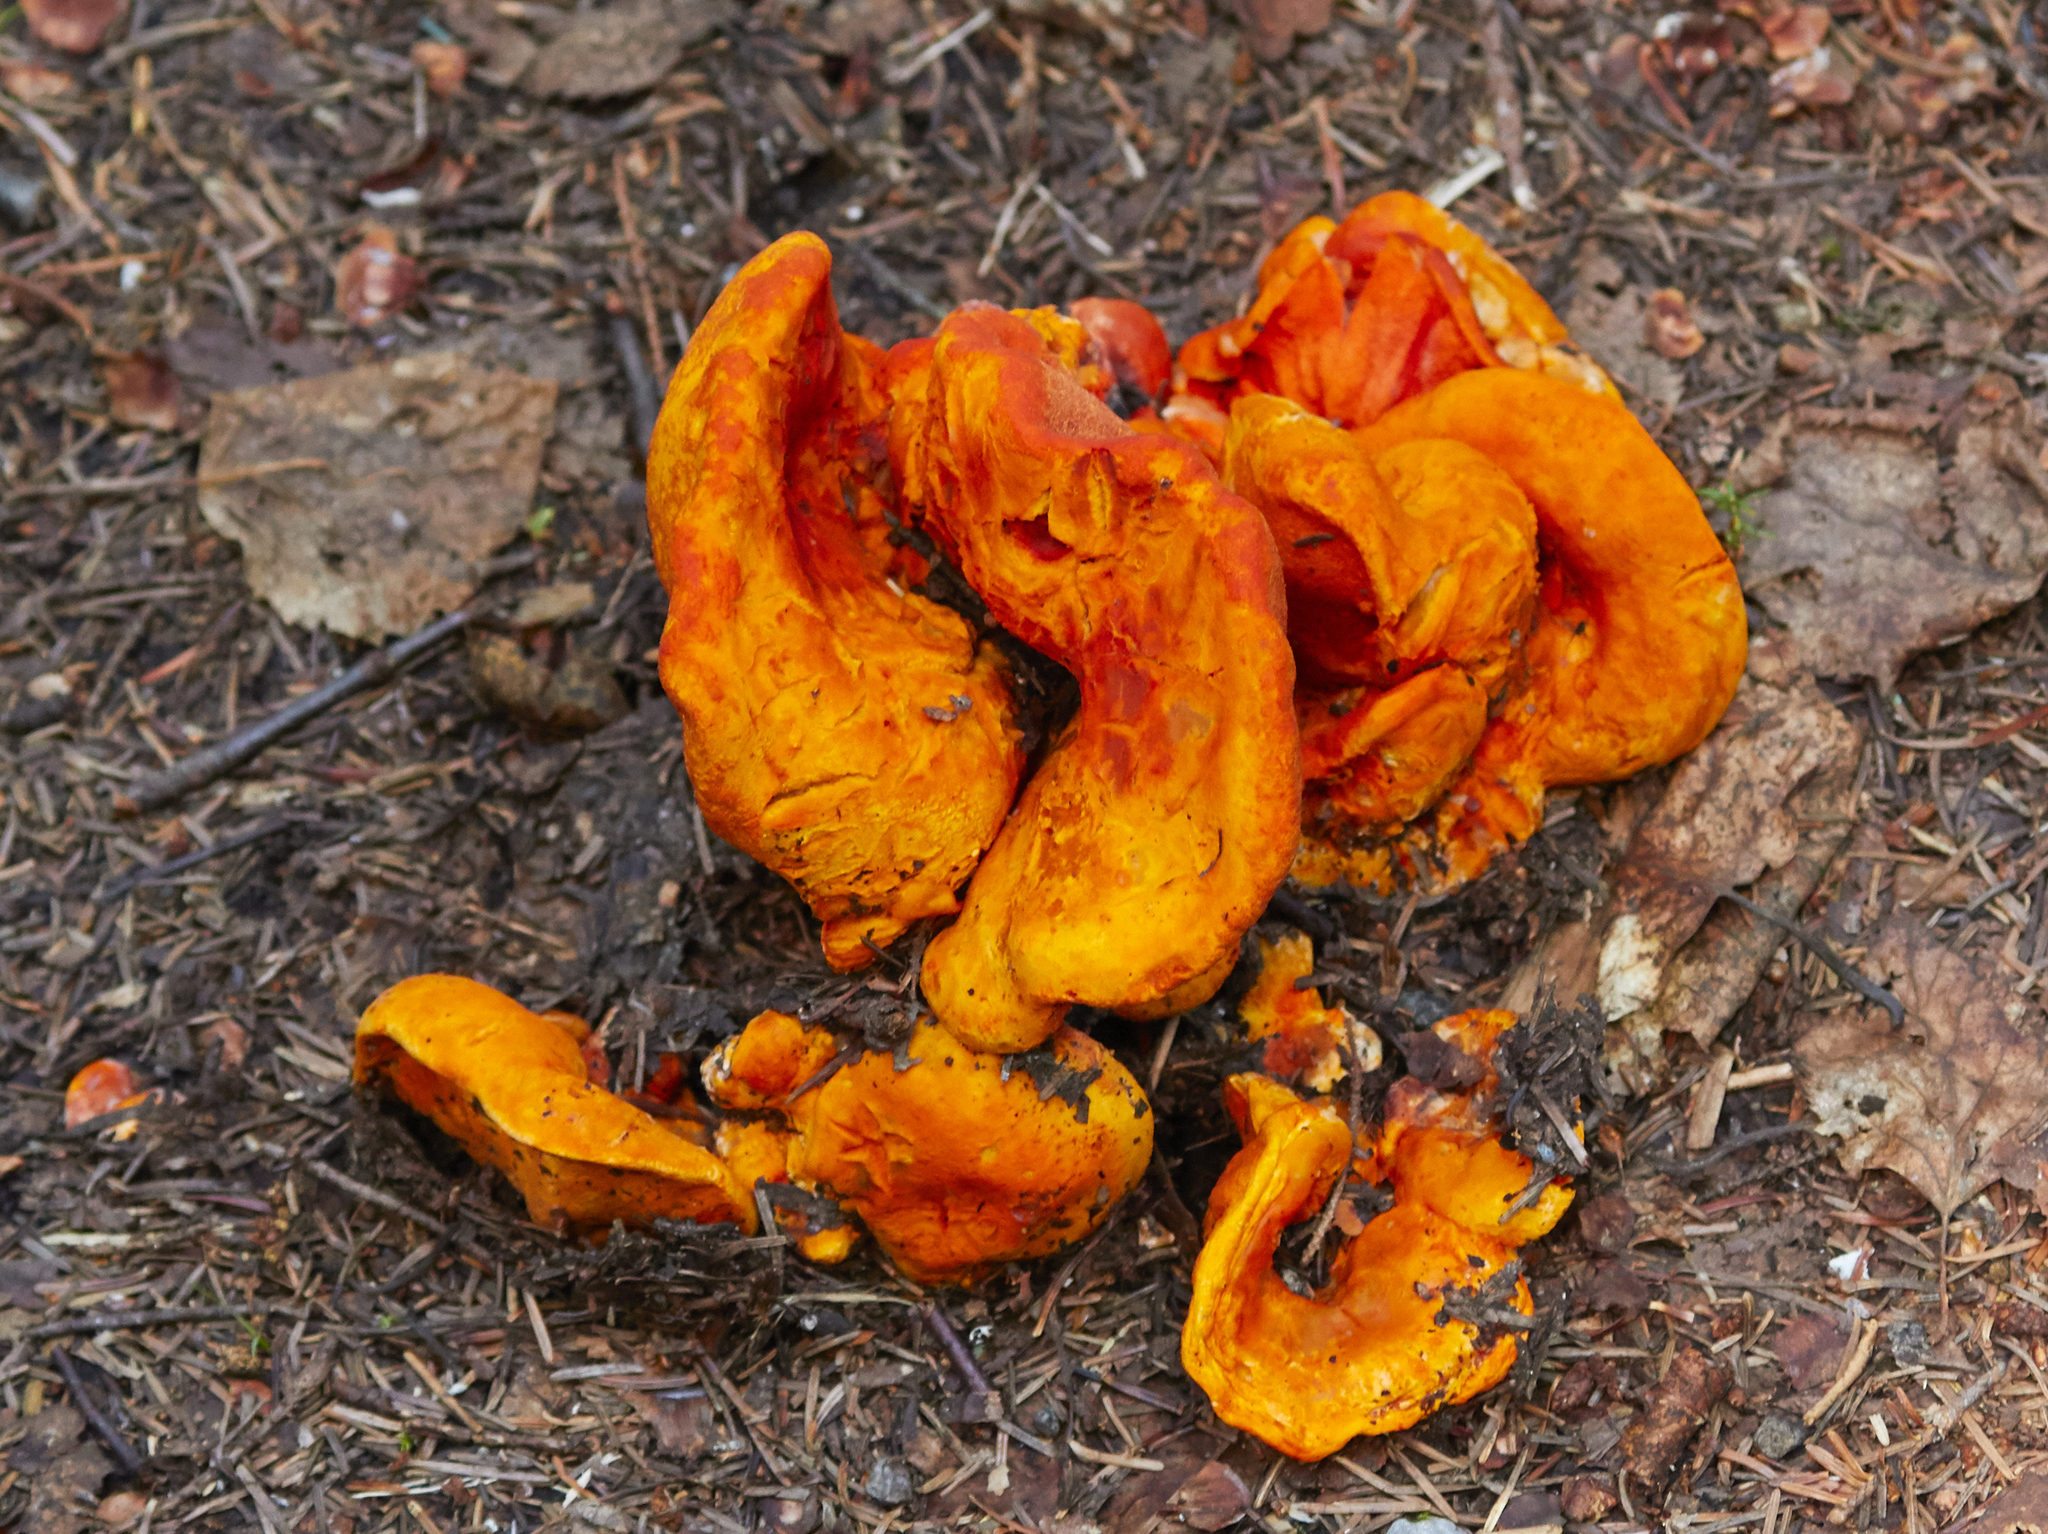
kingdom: Fungi
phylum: Ascomycota
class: Sordariomycetes
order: Hypocreales
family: Hypocreaceae
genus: Hypomyces
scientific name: Hypomyces lactifluorum
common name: Lobster mushroom
